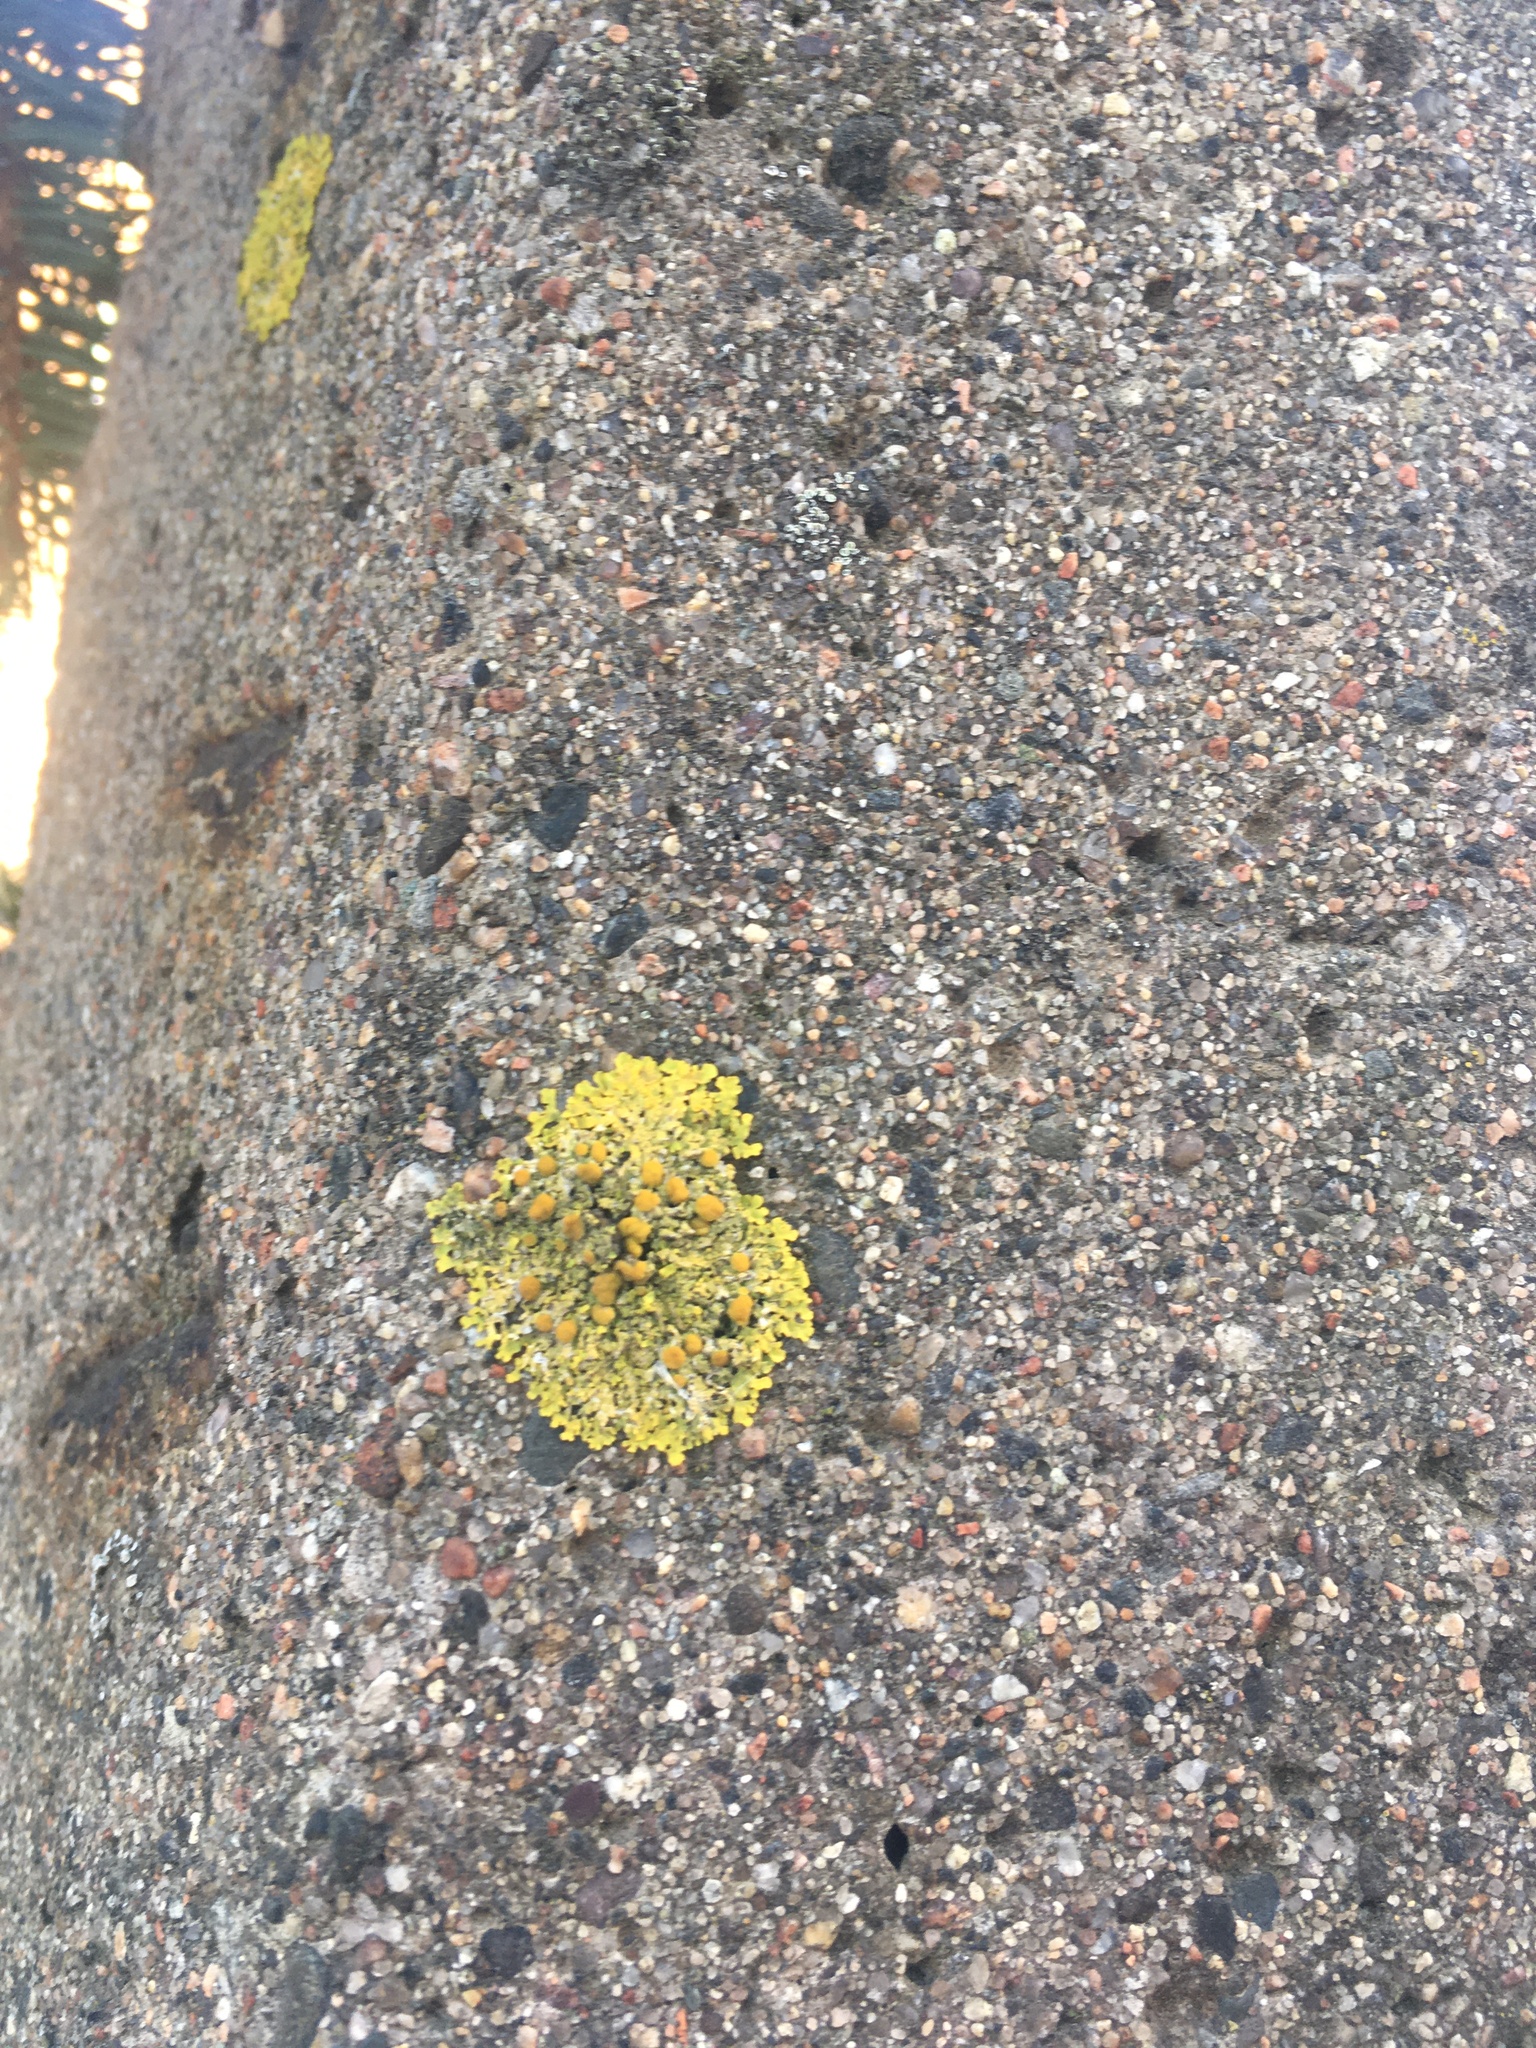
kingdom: Fungi
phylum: Ascomycota
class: Lecanoromycetes
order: Teloschistales
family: Teloschistaceae
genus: Xanthoria
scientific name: Xanthoria parietina
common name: Common orange lichen
